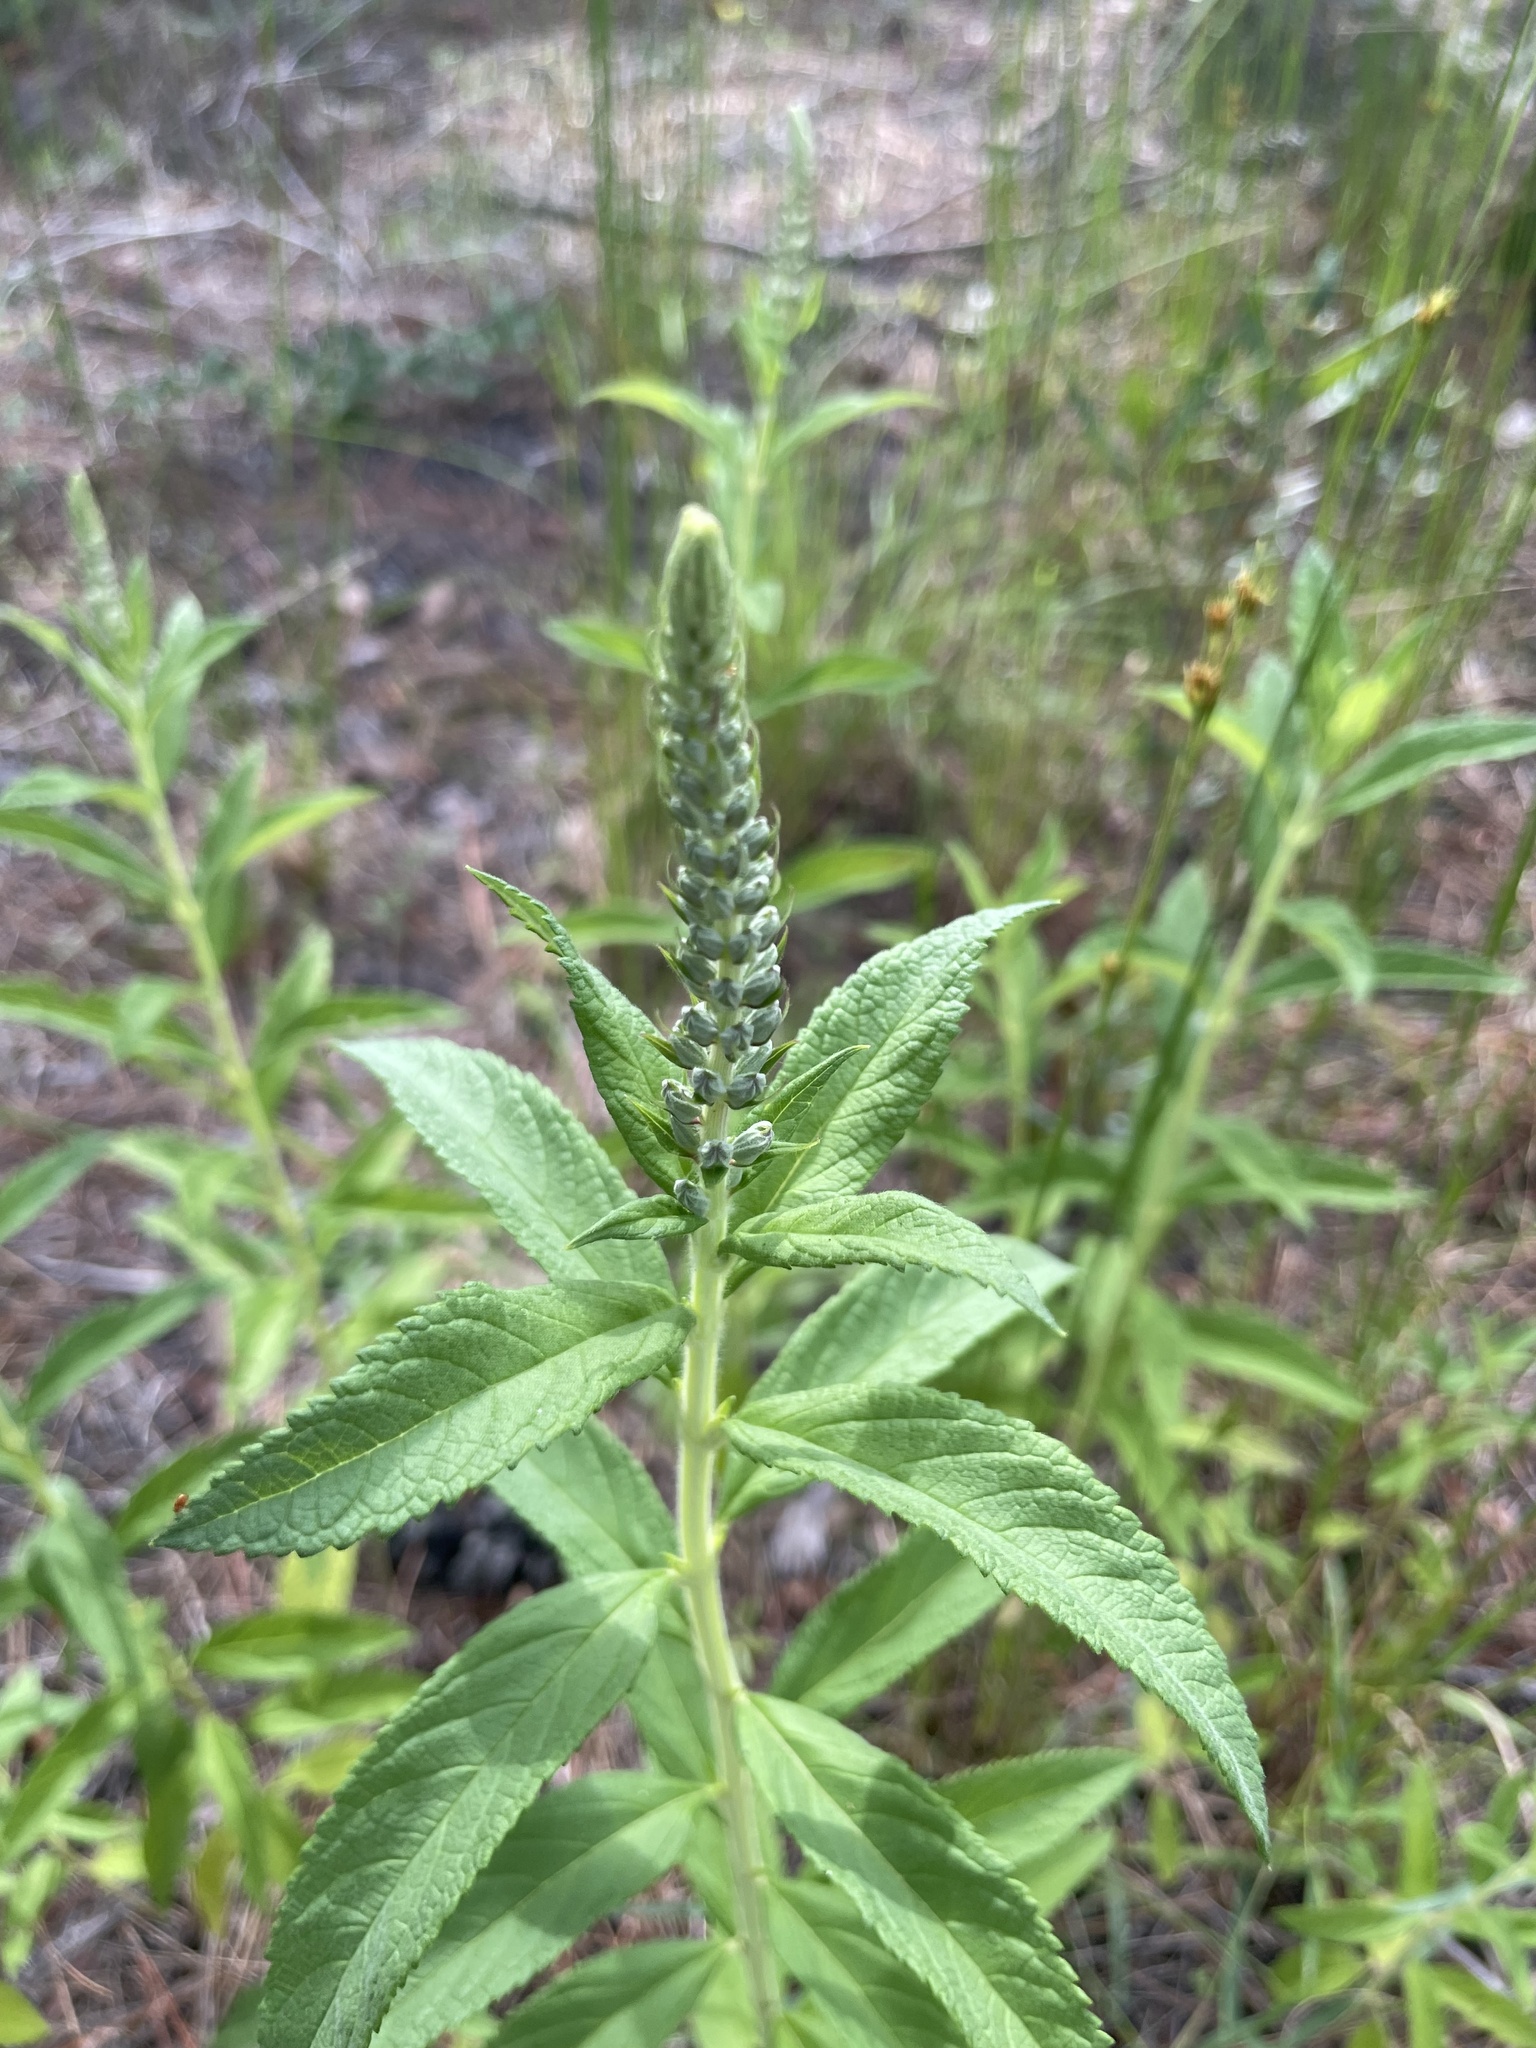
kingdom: Plantae
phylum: Tracheophyta
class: Magnoliopsida
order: Lamiales
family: Lamiaceae
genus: Teucrium
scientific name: Teucrium canadense
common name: American germander
